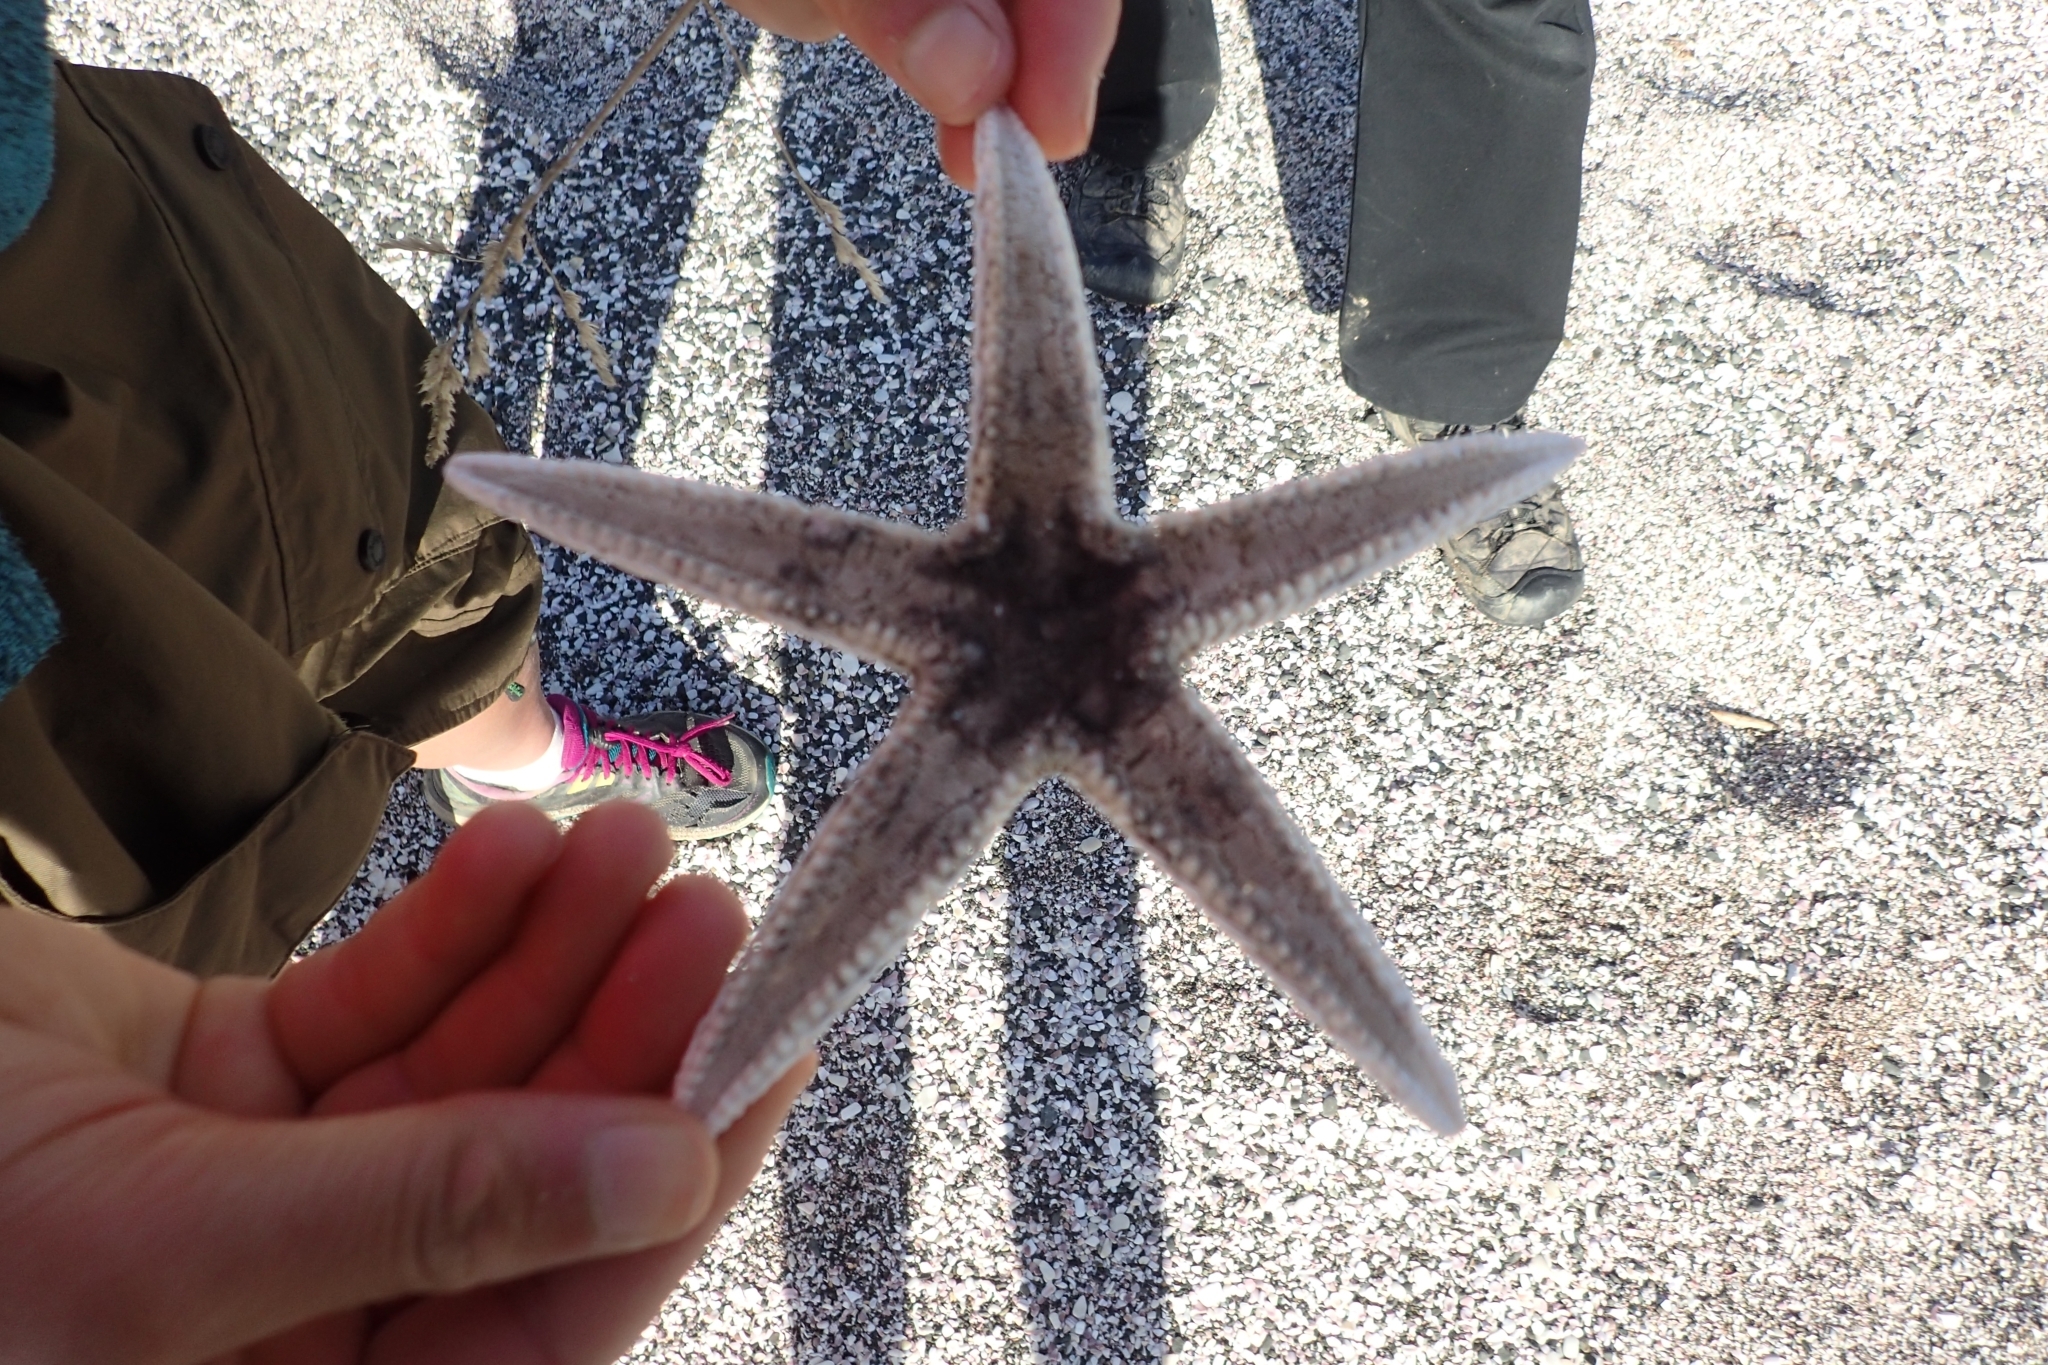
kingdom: Animalia
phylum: Echinodermata
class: Asteroidea
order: Paxillosida
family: Astropectinidae
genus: Astropecten
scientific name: Astropecten polyacanthus
